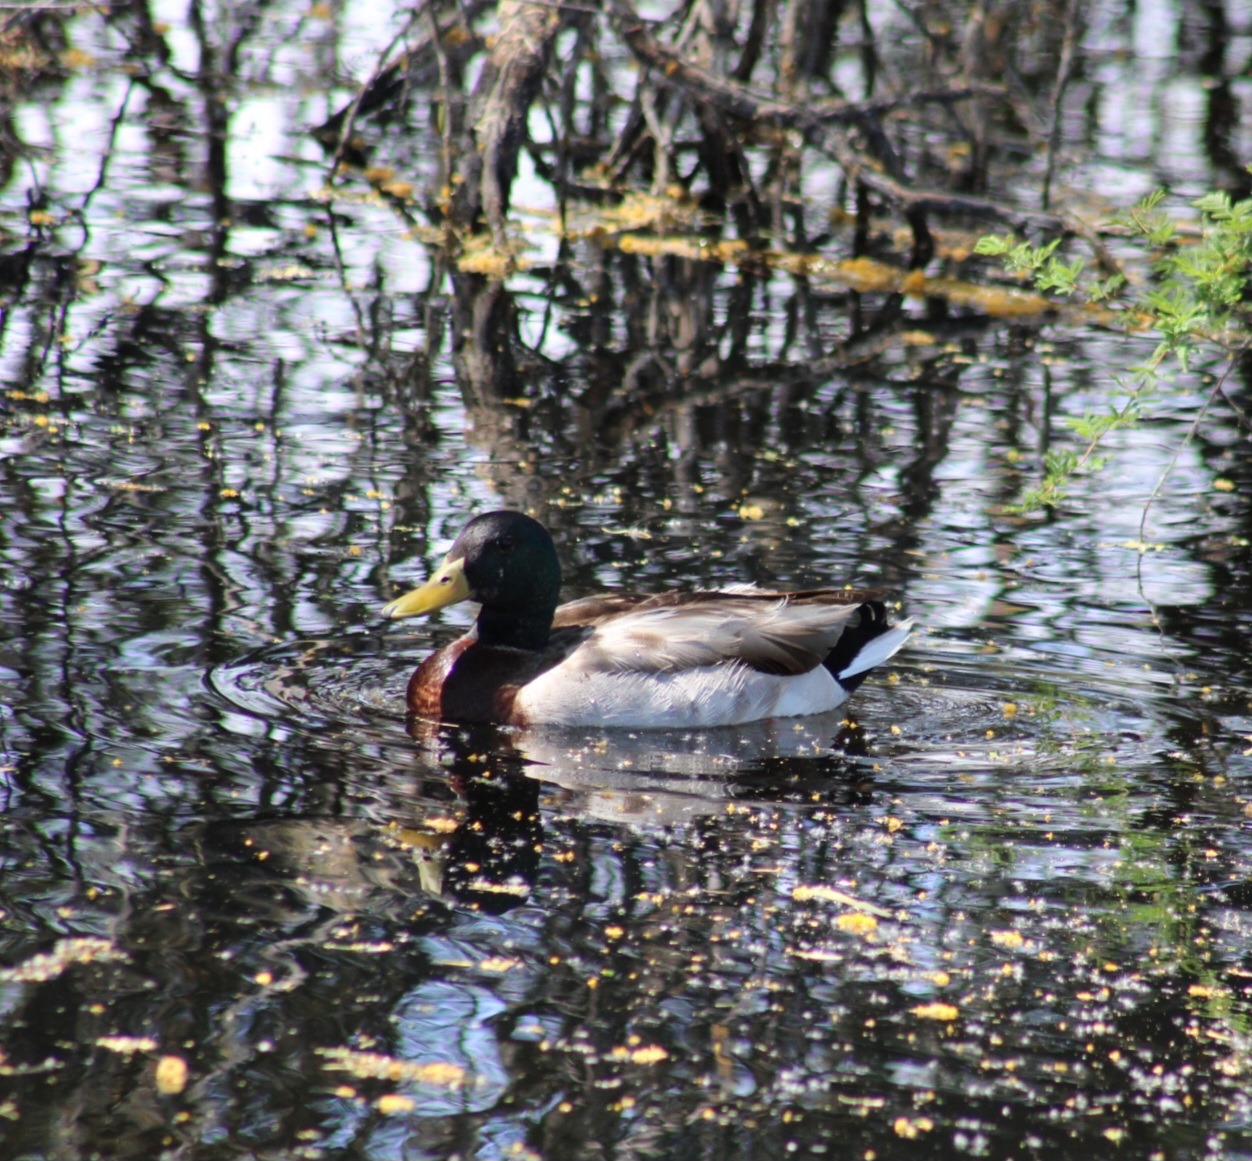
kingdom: Animalia
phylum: Chordata
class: Aves
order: Anseriformes
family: Anatidae
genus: Anas
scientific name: Anas platyrhynchos
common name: Mallard
